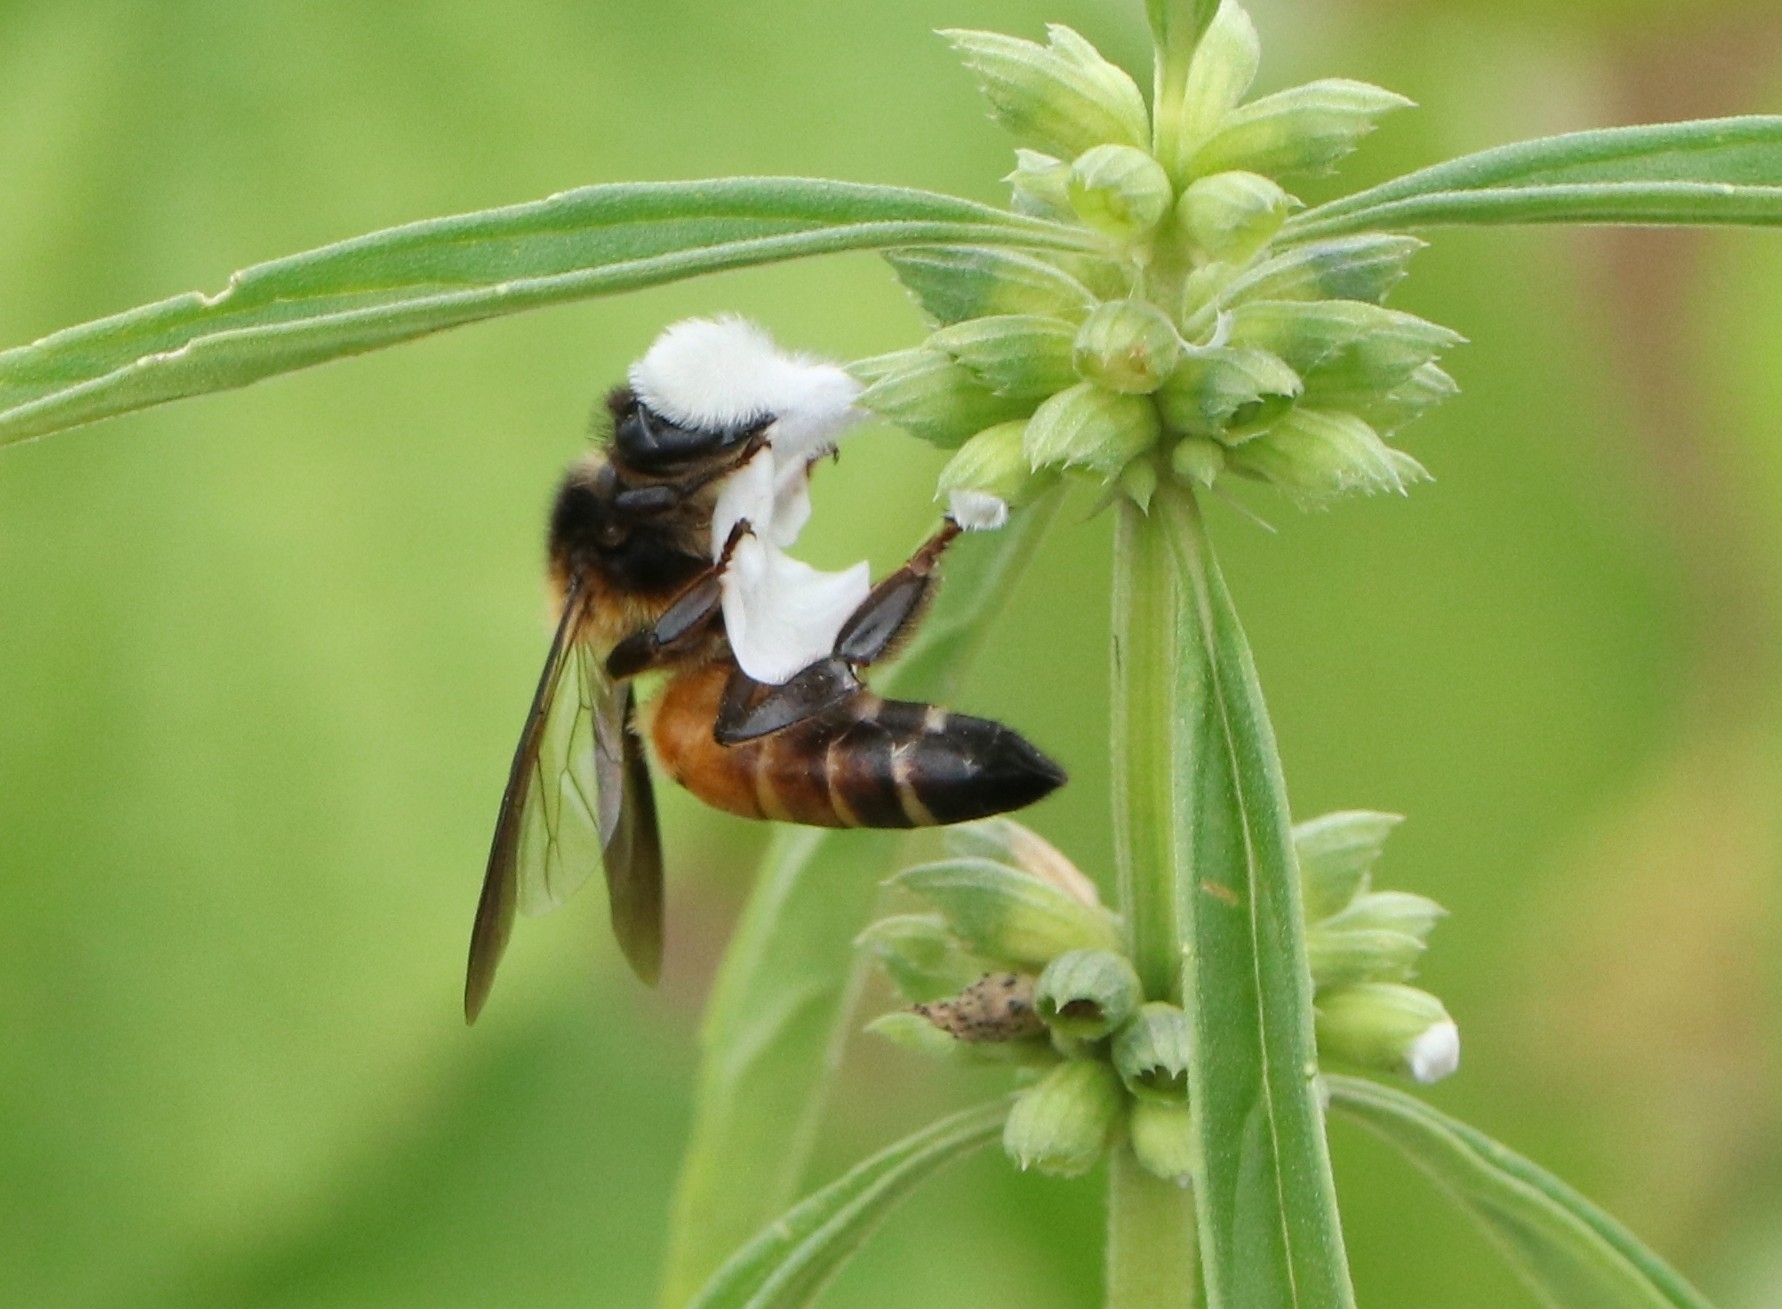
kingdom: Animalia
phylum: Arthropoda
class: Insecta
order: Hymenoptera
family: Apidae
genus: Apis
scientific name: Apis dorsata
